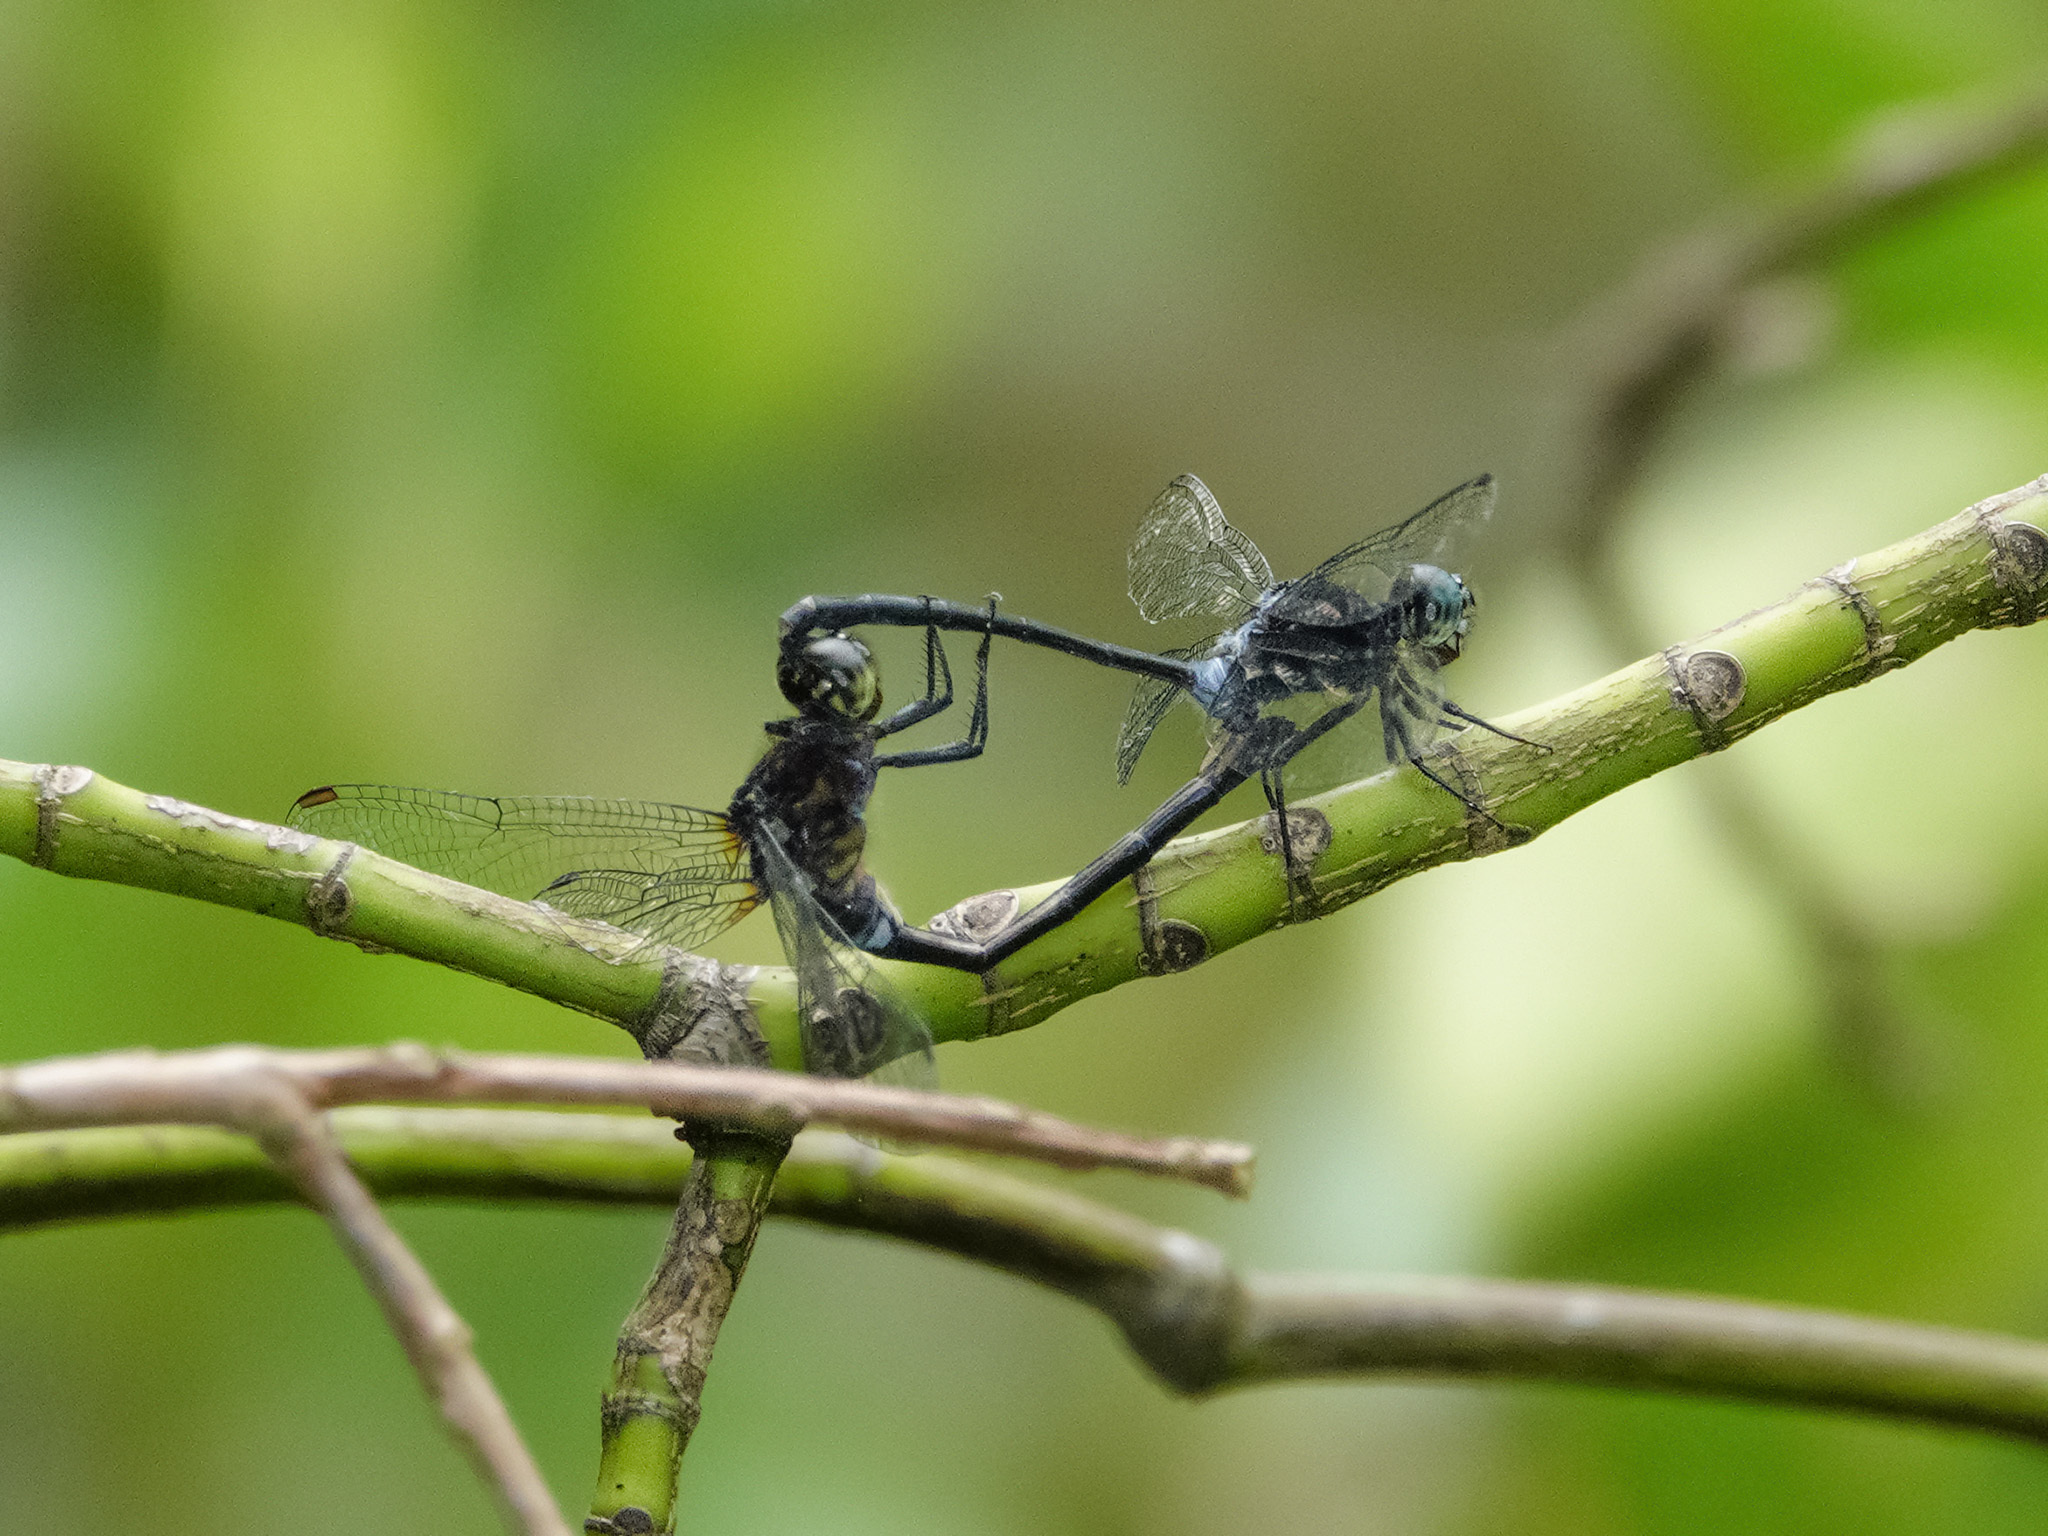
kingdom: Animalia
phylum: Arthropoda
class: Insecta
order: Odonata
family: Libellulidae
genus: Pornothemis
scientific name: Pornothemis starrei
